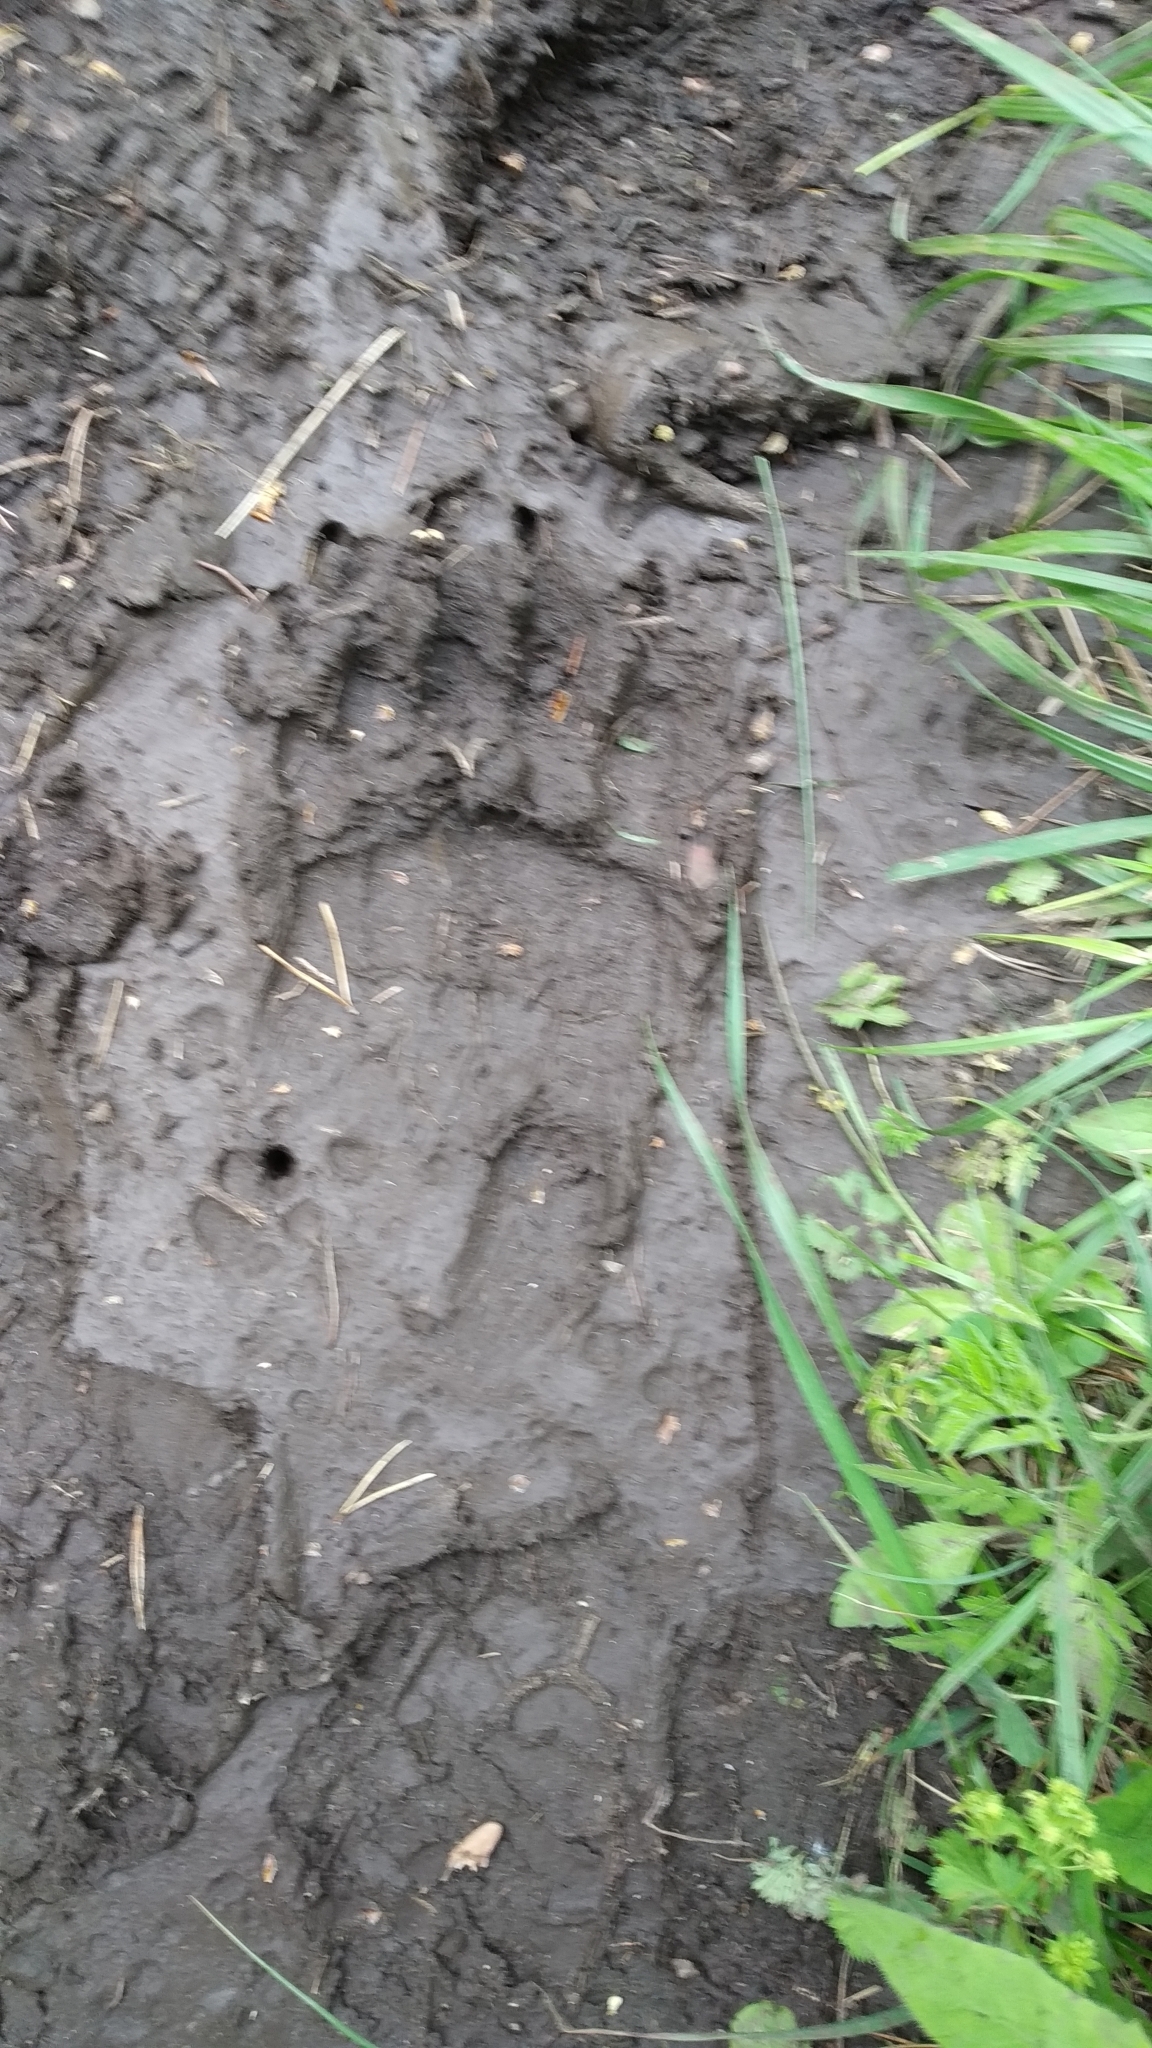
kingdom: Animalia
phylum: Chordata
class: Mammalia
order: Carnivora
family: Ursidae
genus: Ursus
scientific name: Ursus arctos
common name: Brown bear
